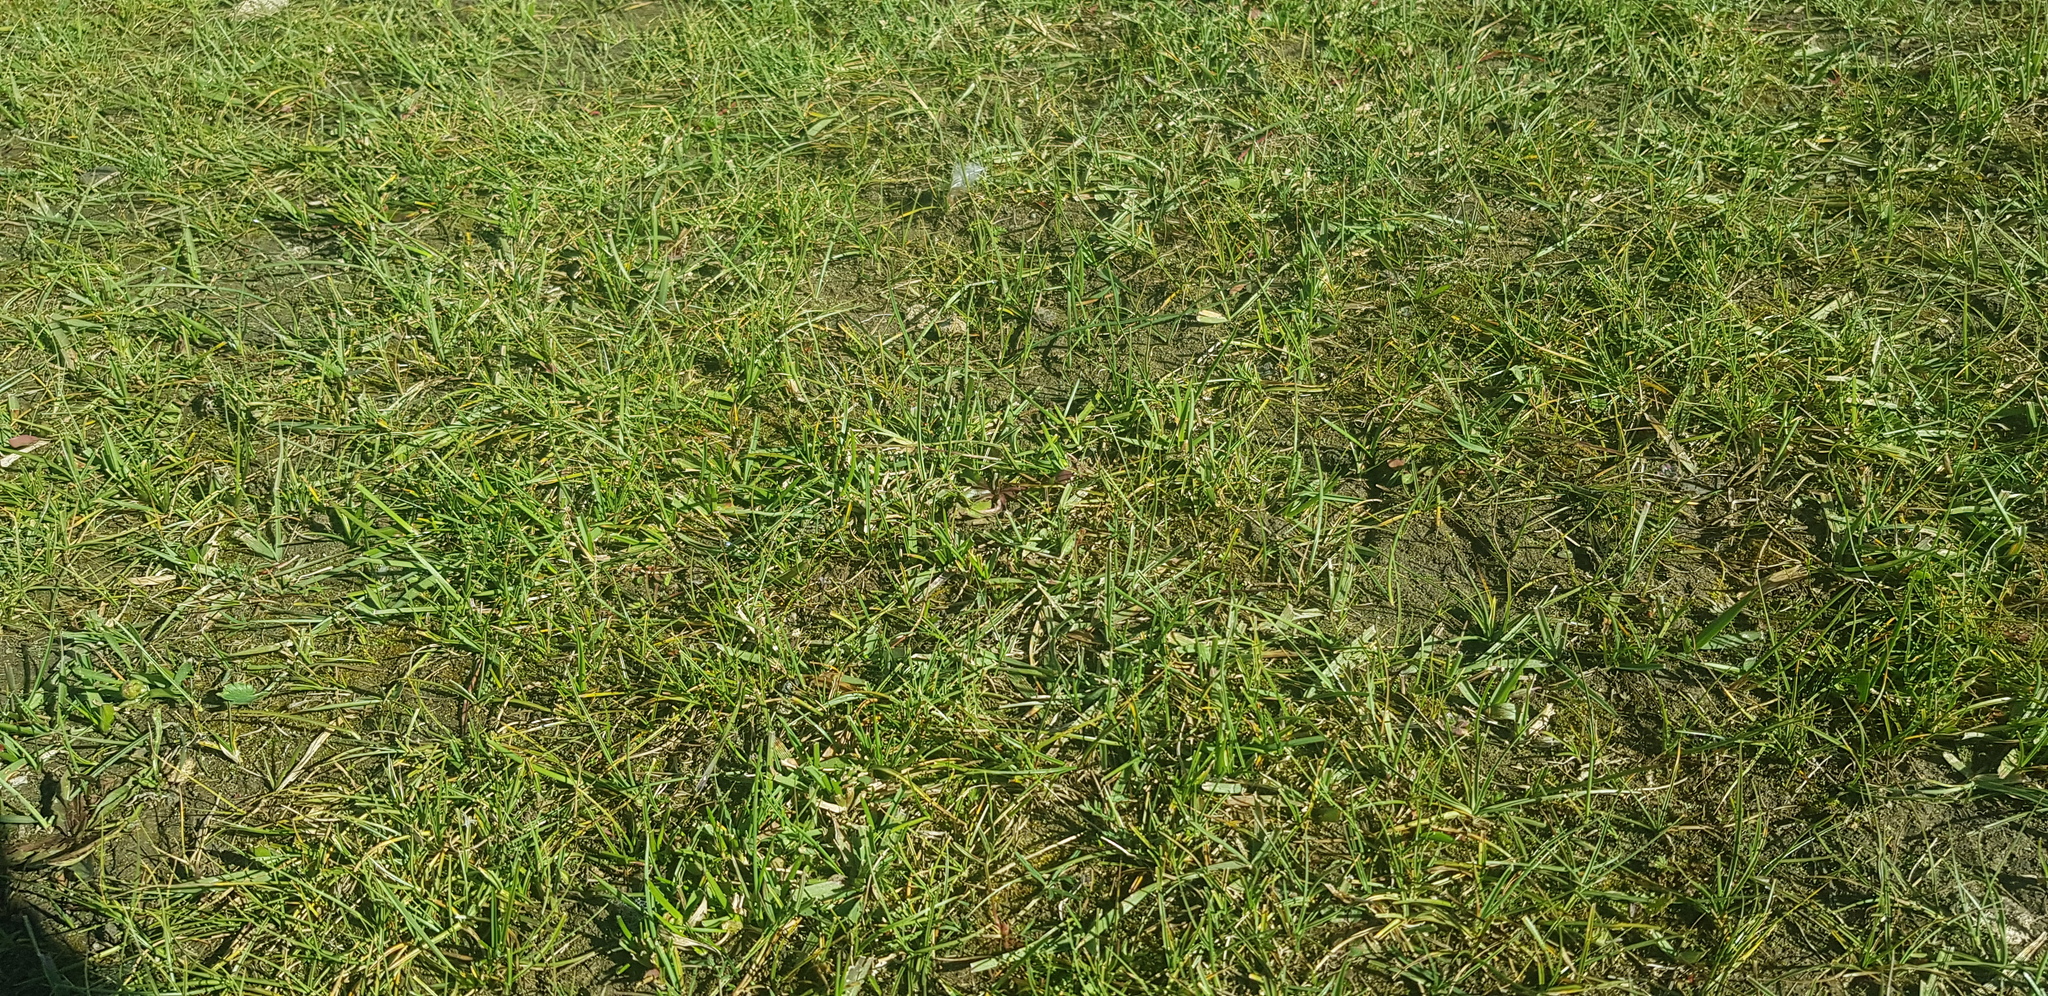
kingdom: Plantae
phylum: Tracheophyta
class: Liliopsida
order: Poales
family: Cyperaceae
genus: Carex
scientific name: Carex duriuscula
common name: Involute-leaved sedge
